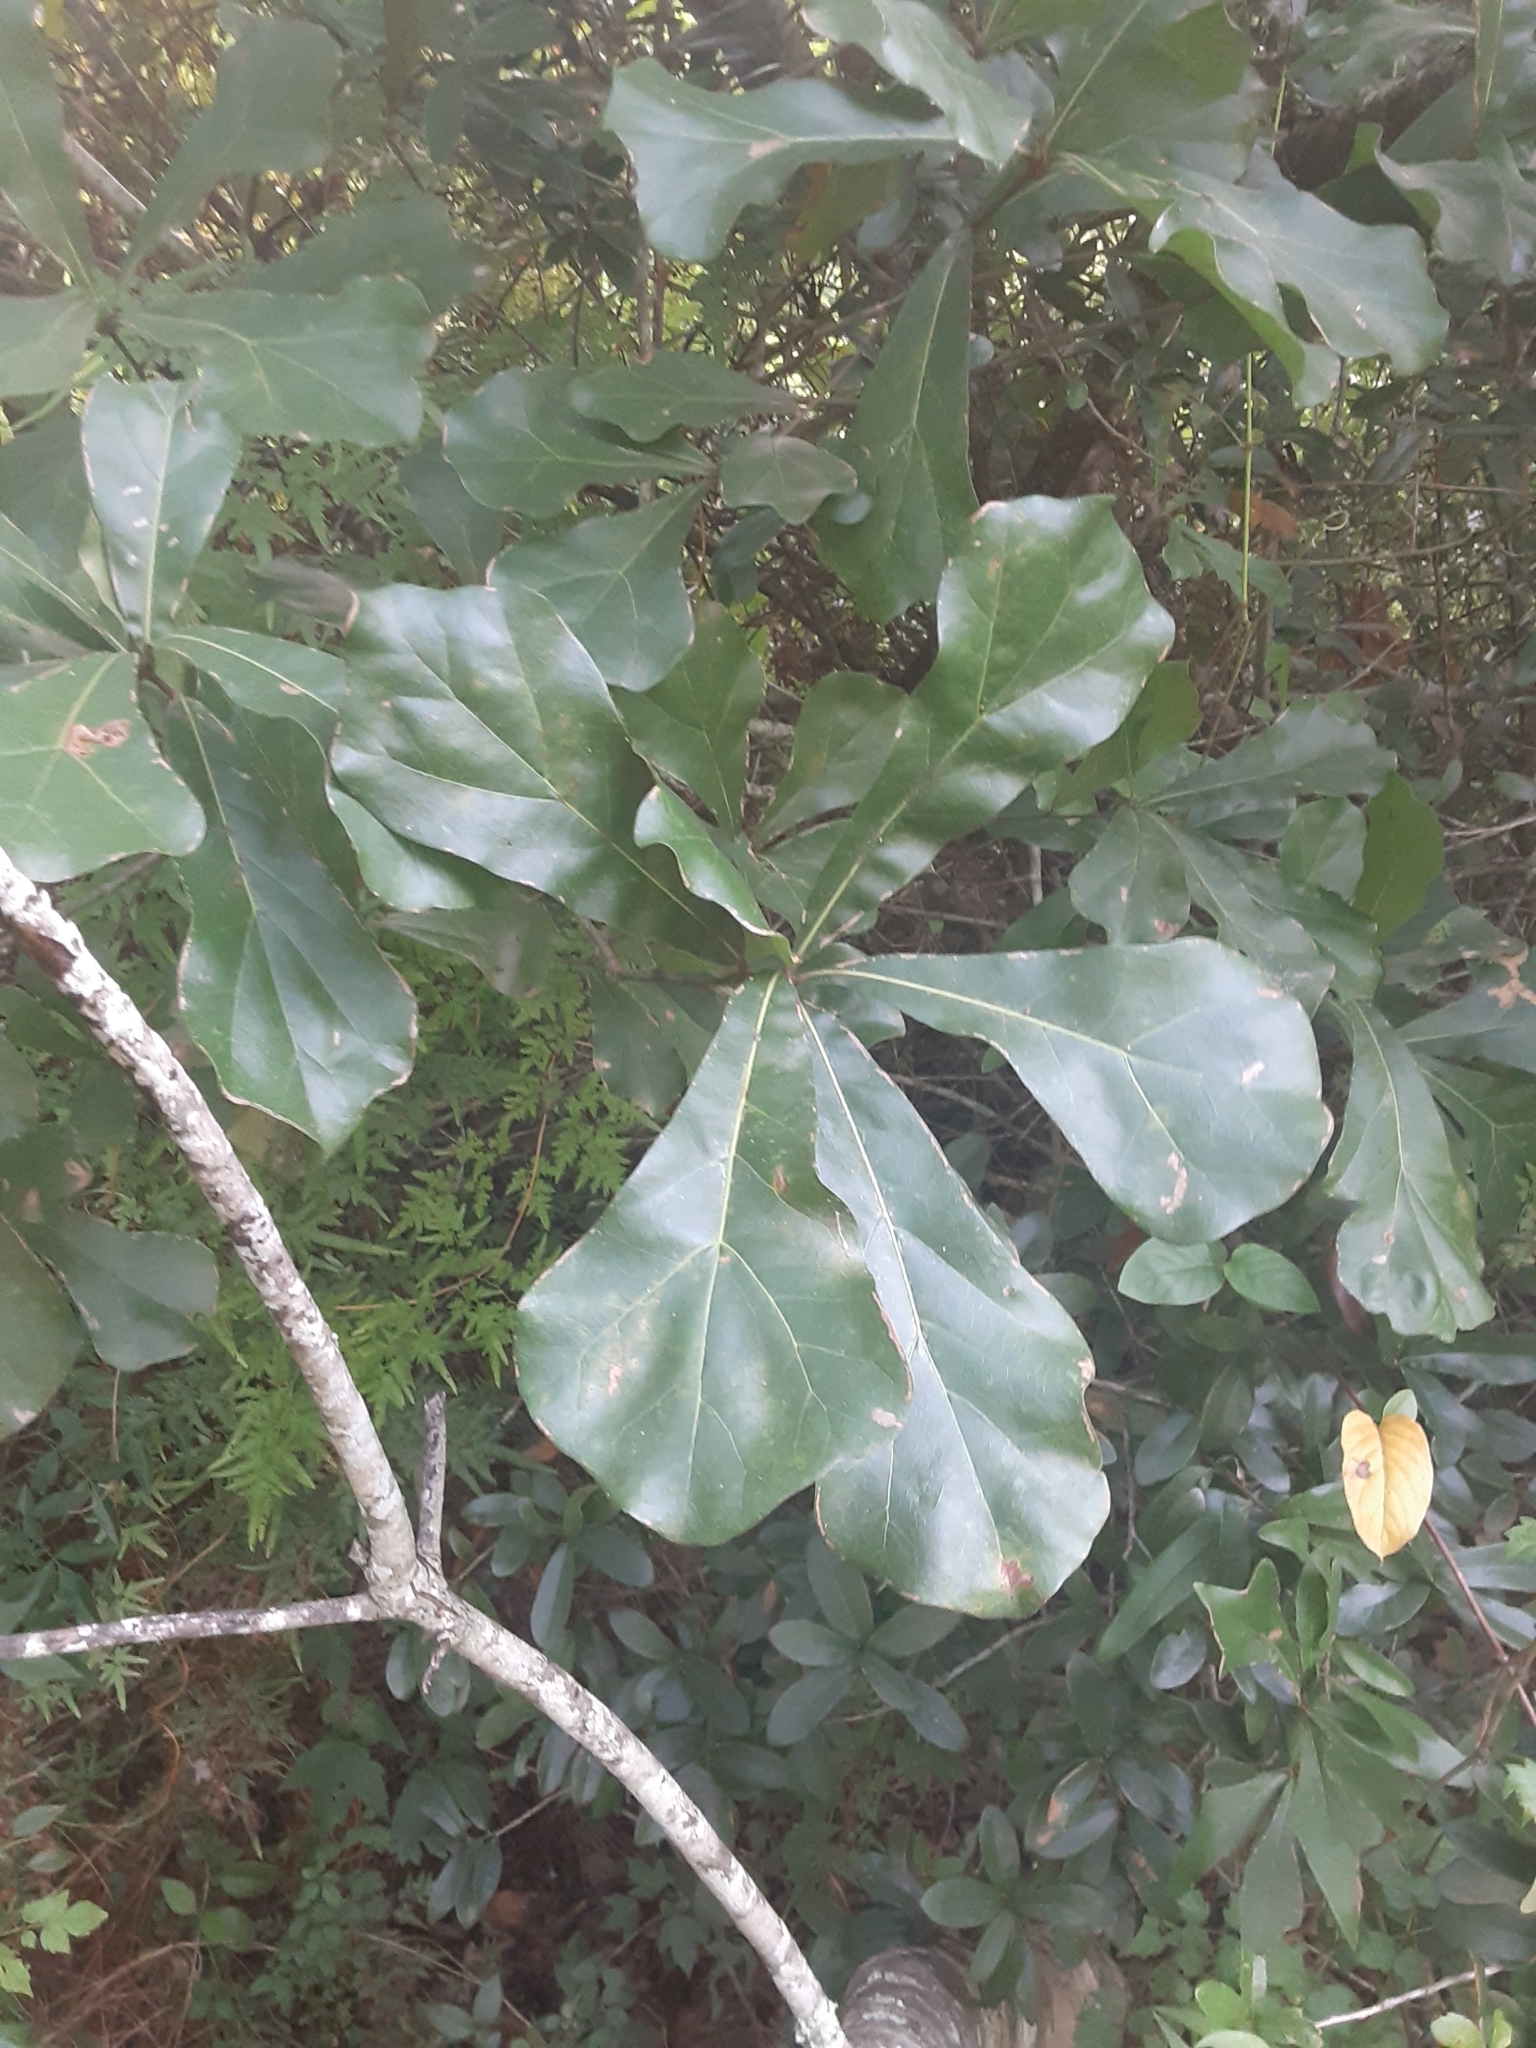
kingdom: Plantae
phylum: Tracheophyta
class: Magnoliopsida
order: Fagales
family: Fagaceae
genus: Quercus
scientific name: Quercus nigra
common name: Water oak
